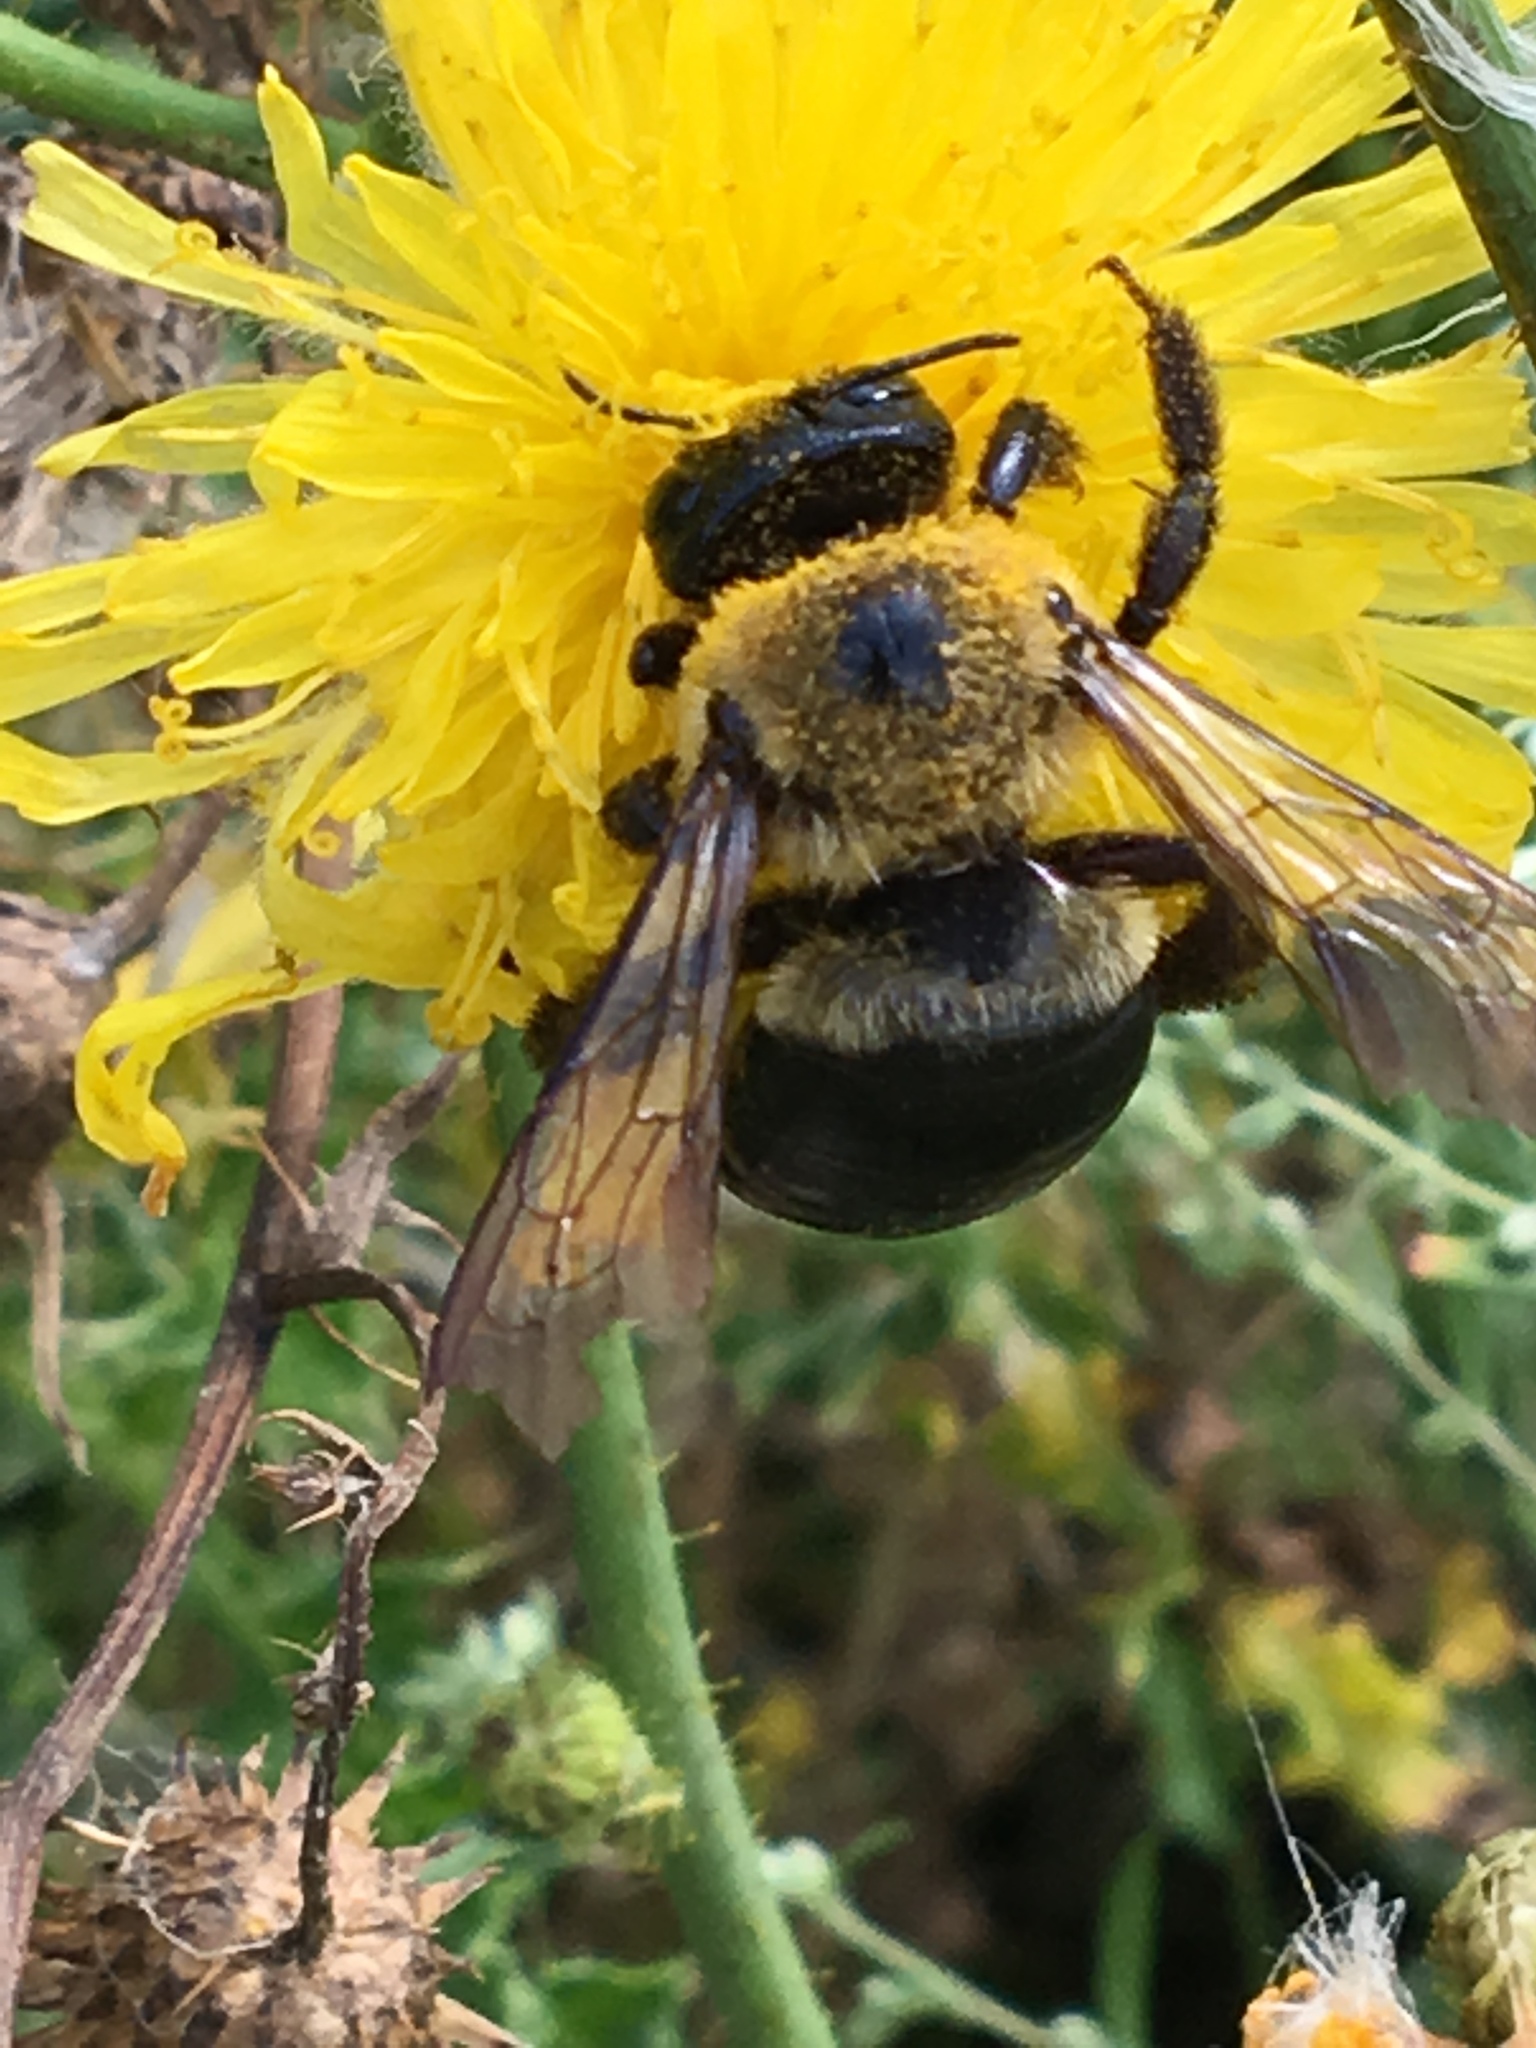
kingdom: Animalia
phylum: Arthropoda
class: Insecta
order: Hymenoptera
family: Apidae
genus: Xylocopa
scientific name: Xylocopa virginica
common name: Carpenter bee
